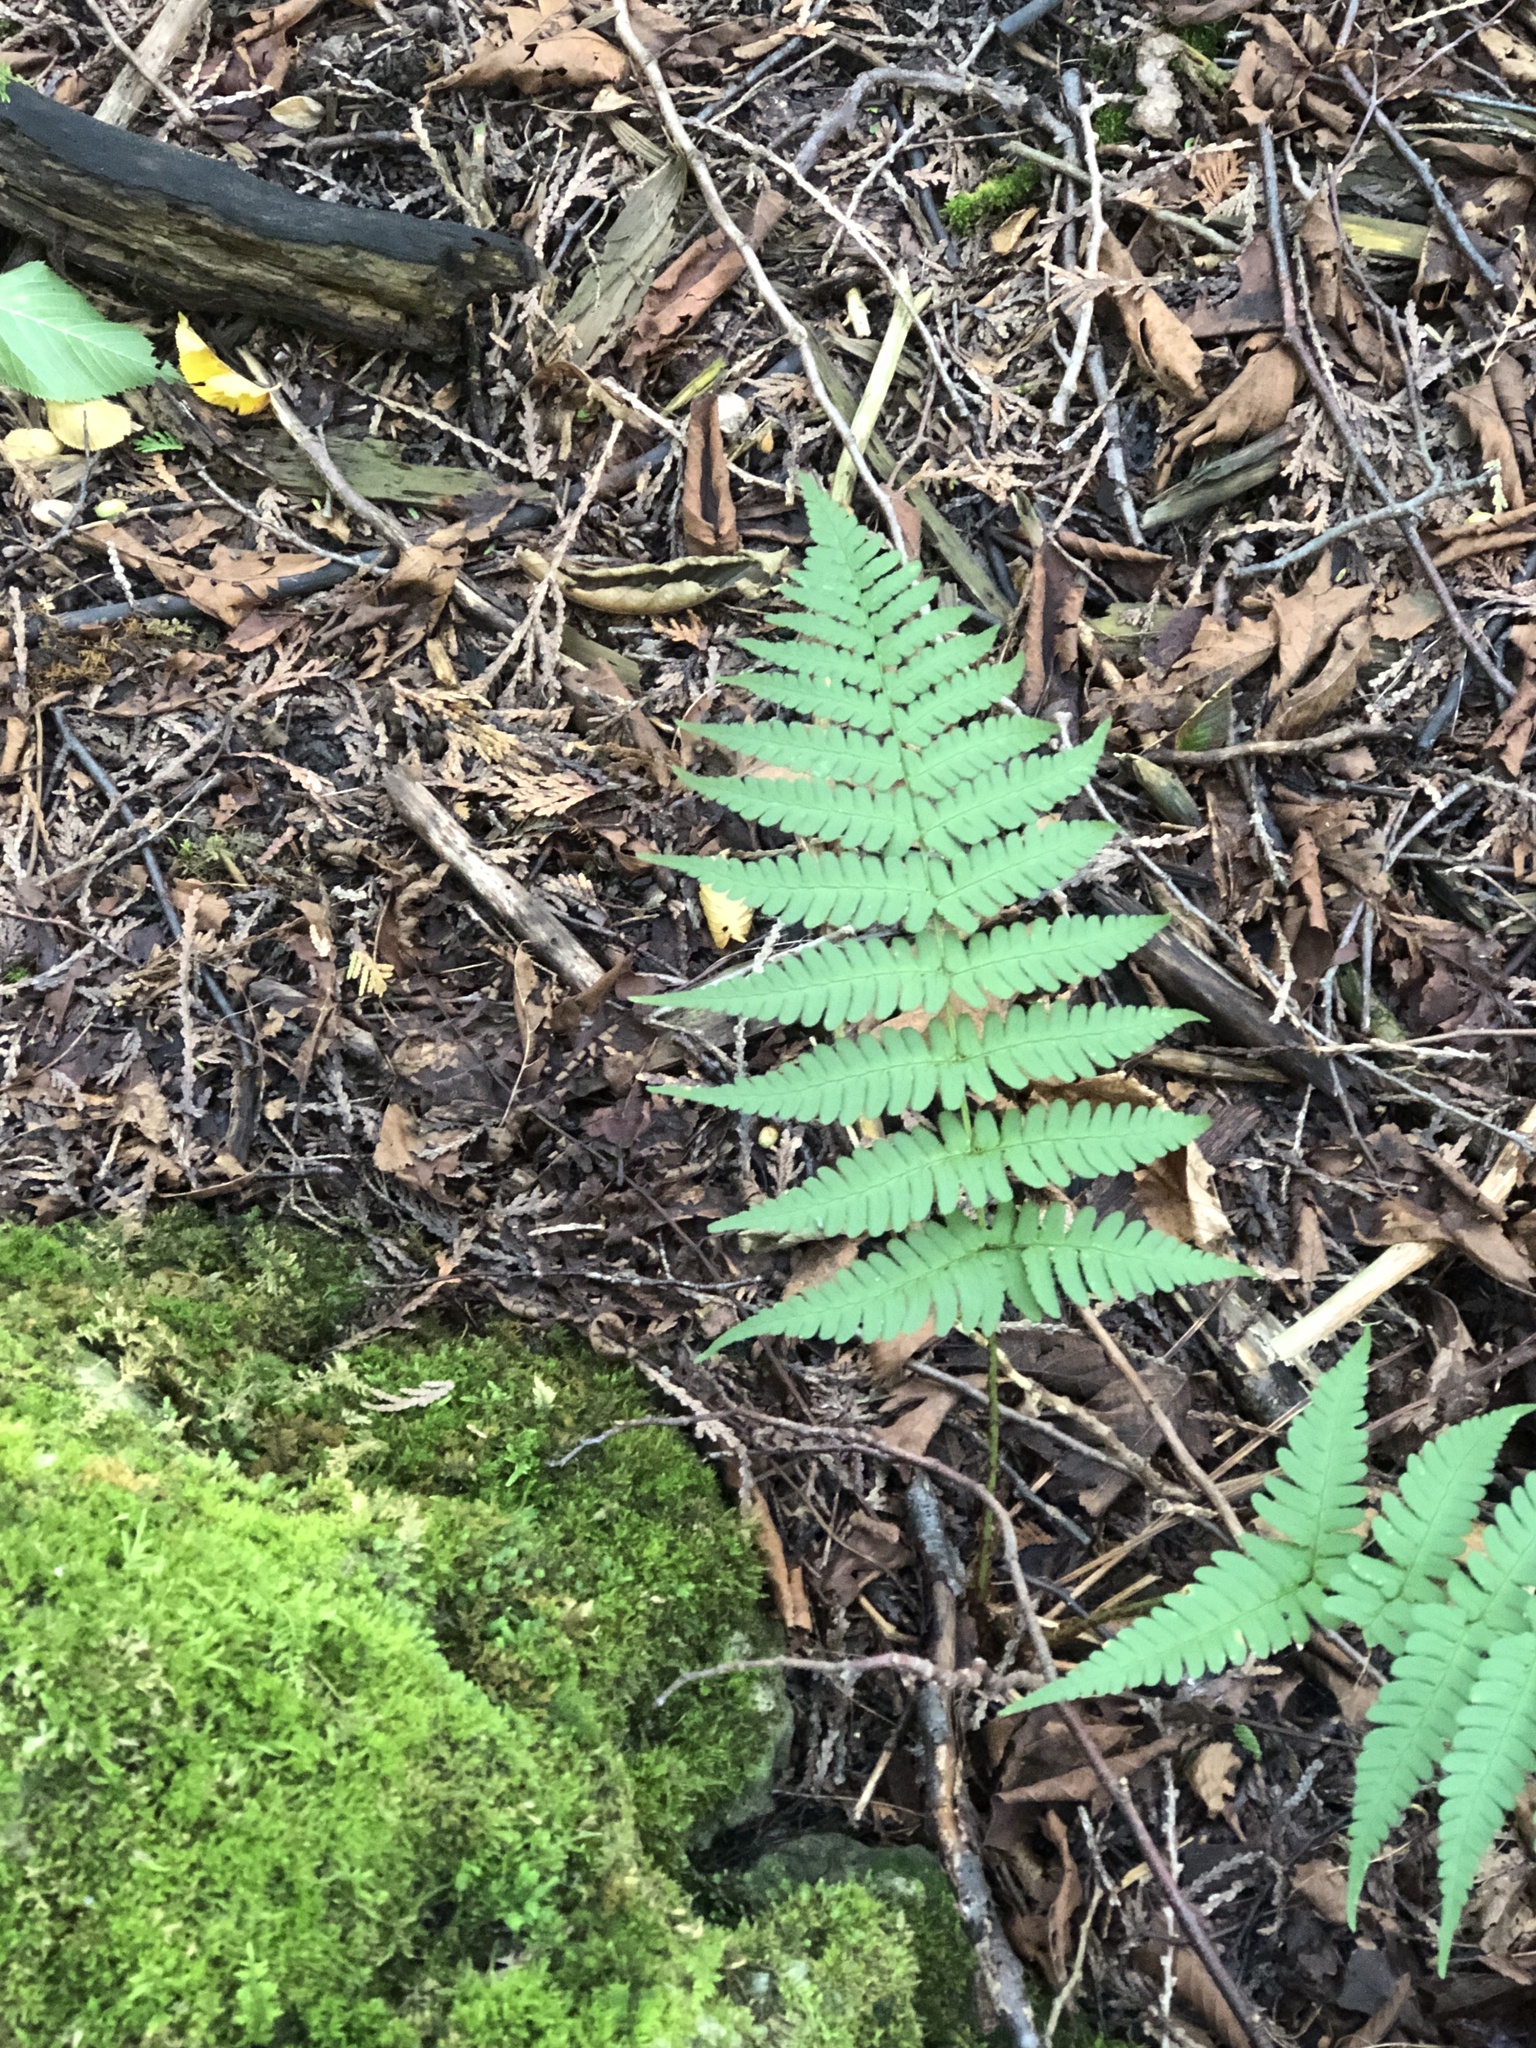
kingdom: Plantae
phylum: Tracheophyta
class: Polypodiopsida
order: Polypodiales
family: Dryopteridaceae
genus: Dryopteris
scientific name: Dryopteris marginalis
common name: Marginal wood fern
